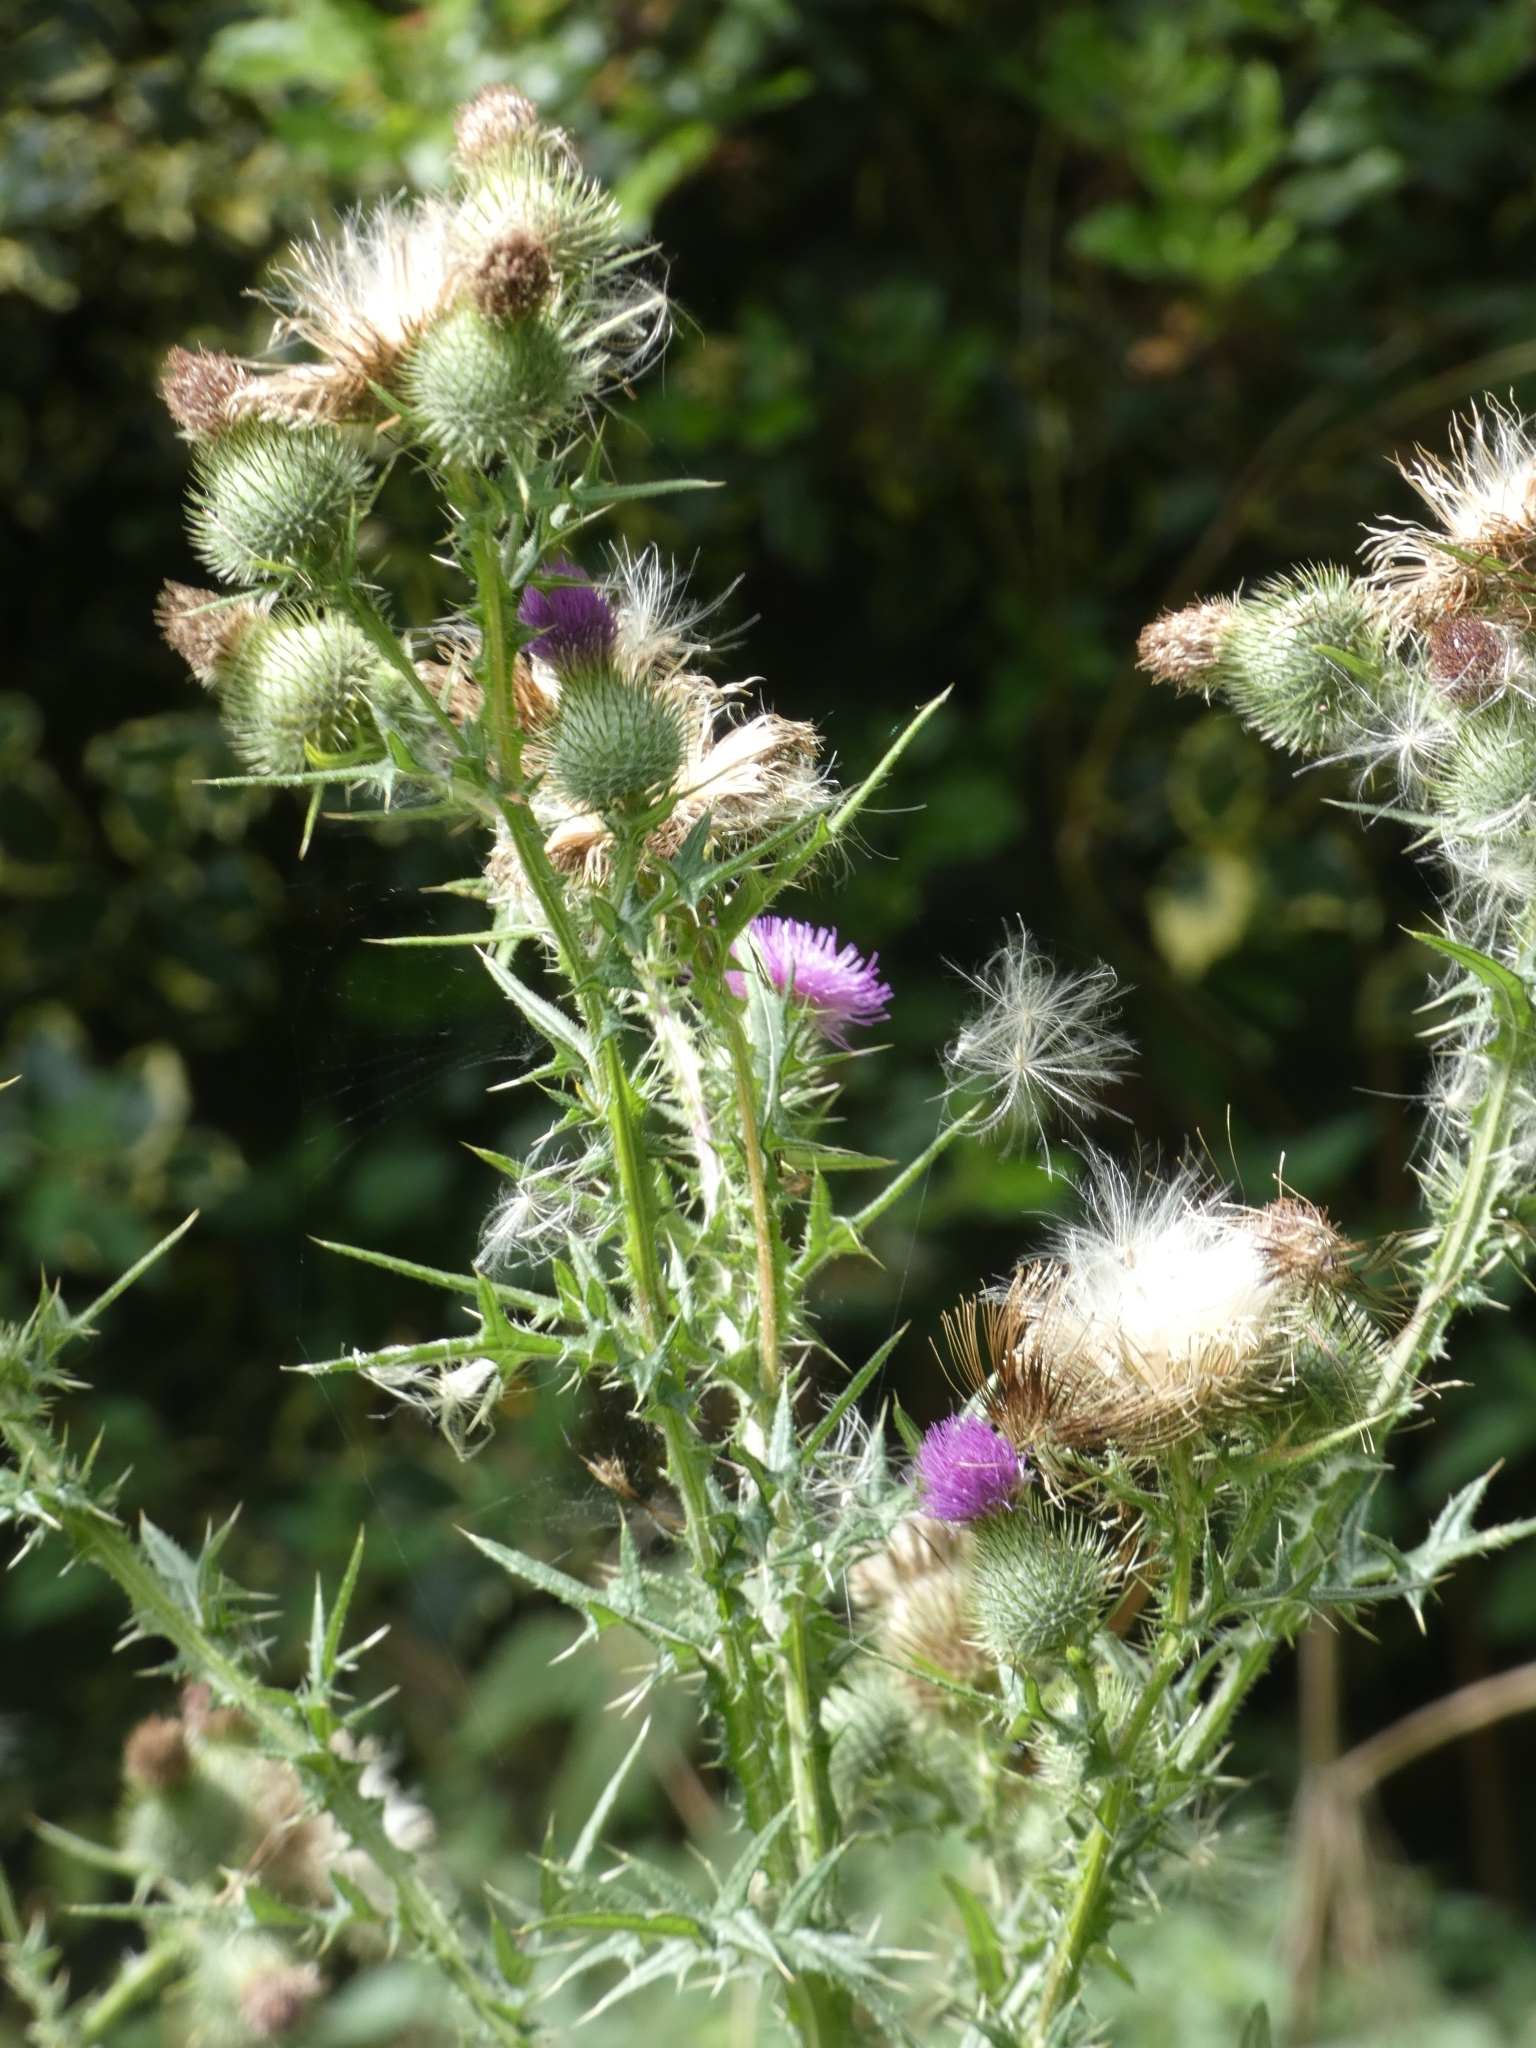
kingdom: Plantae
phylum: Tracheophyta
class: Magnoliopsida
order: Asterales
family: Asteraceae
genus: Cirsium
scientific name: Cirsium vulgare
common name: Bull thistle
